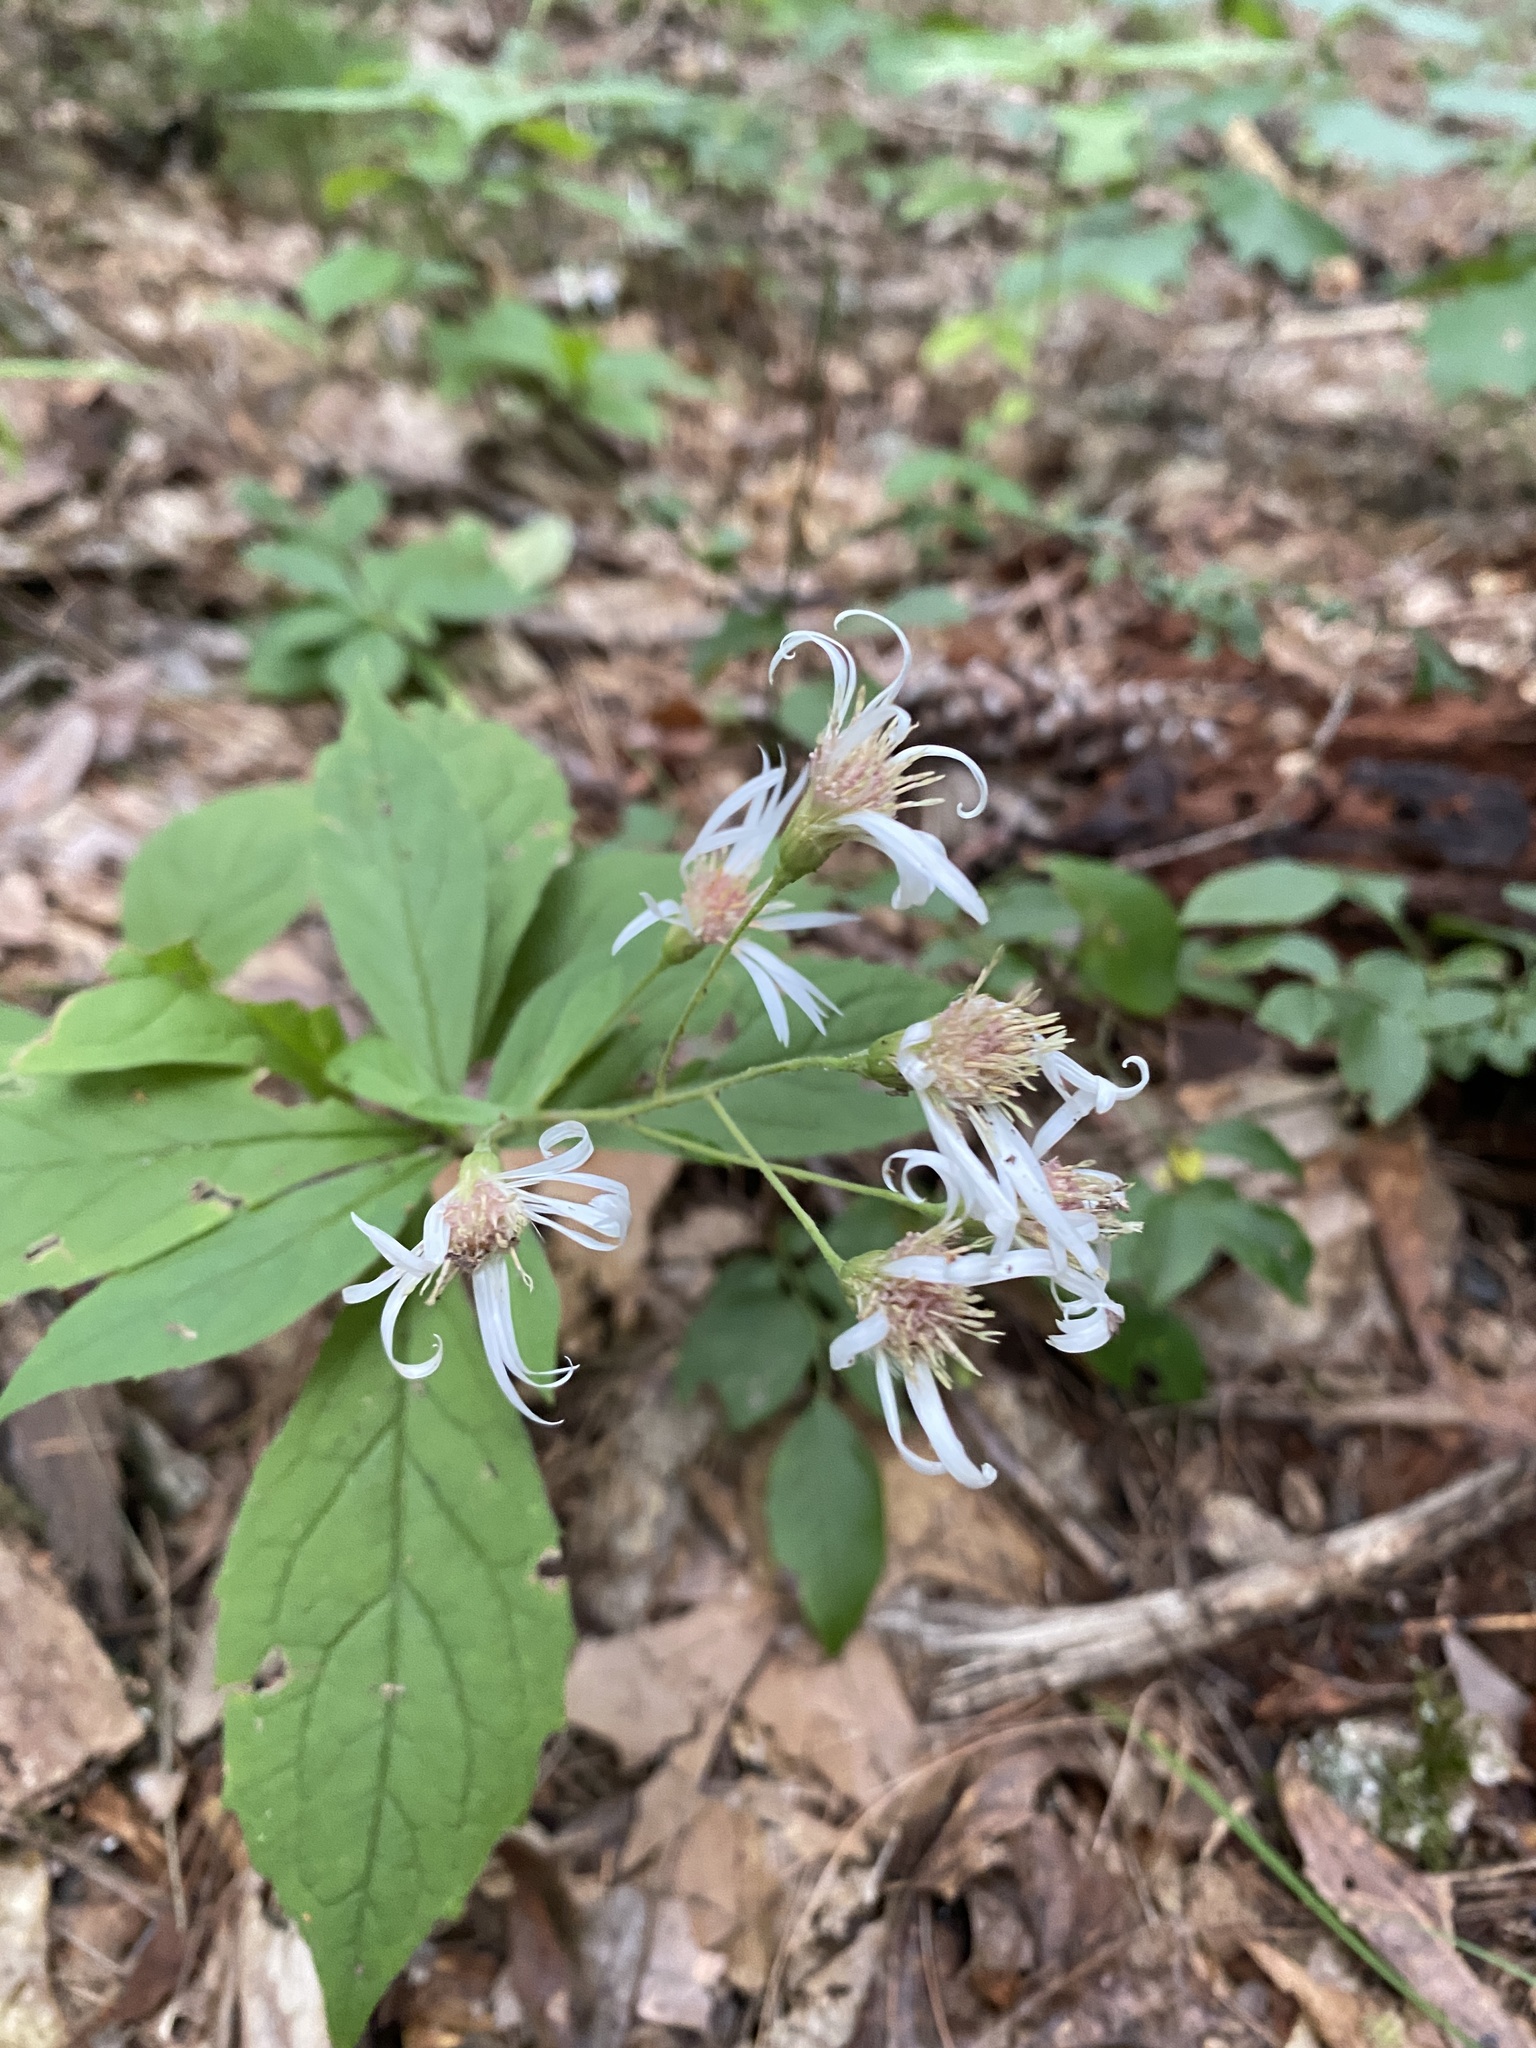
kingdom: Plantae
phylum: Tracheophyta
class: Magnoliopsida
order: Asterales
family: Asteraceae
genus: Oclemena
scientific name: Oclemena acuminata
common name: Mountain aster
